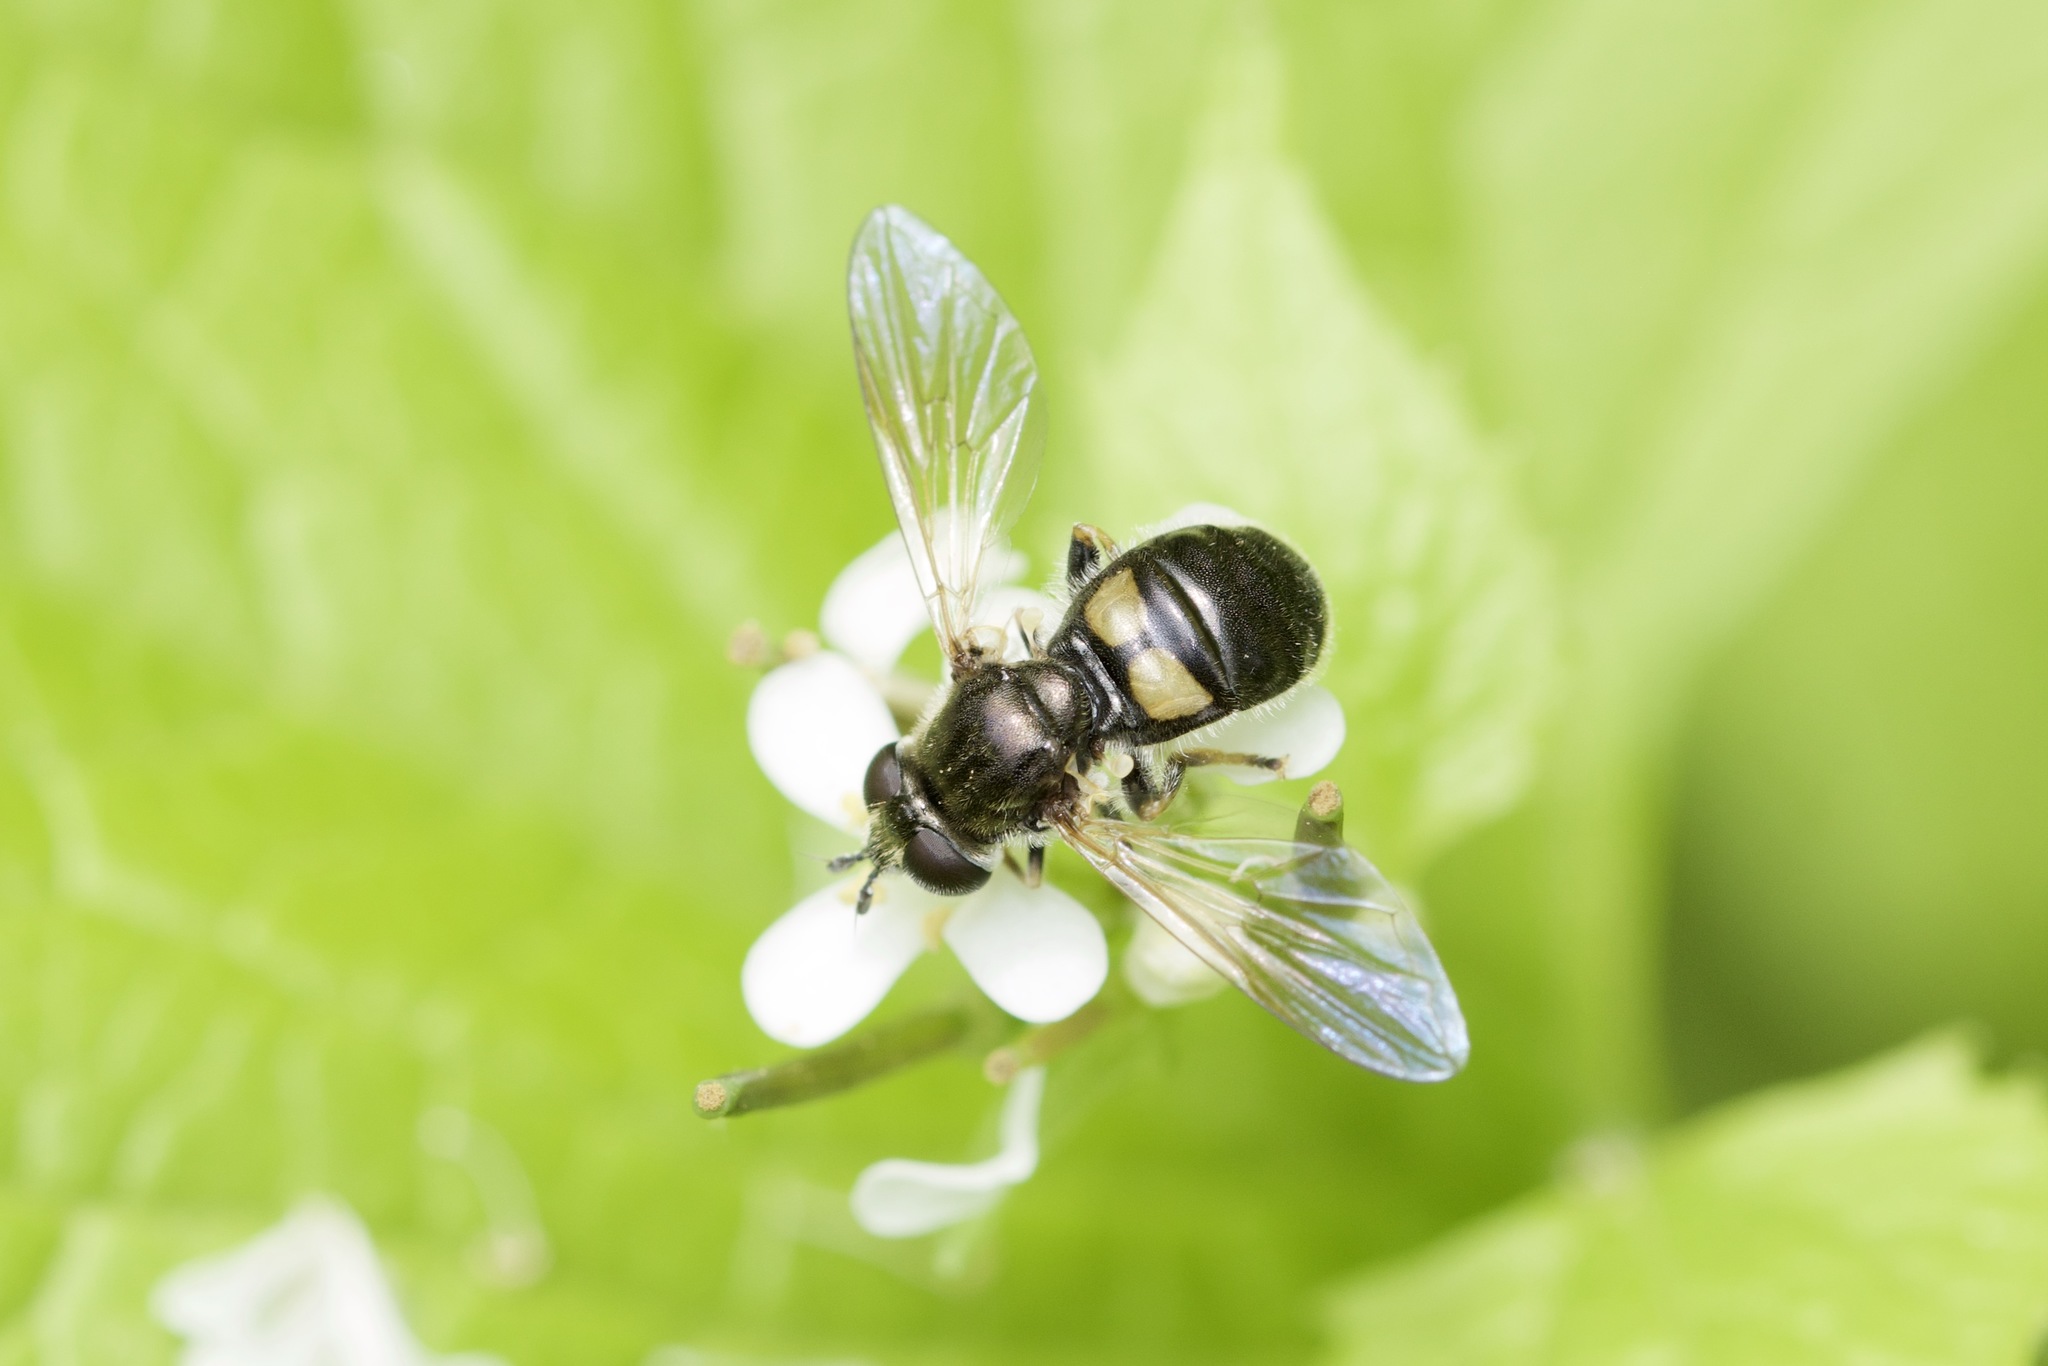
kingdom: Animalia
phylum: Arthropoda
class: Insecta
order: Diptera
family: Syrphidae
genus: Pipiza
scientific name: Pipiza femoralis
